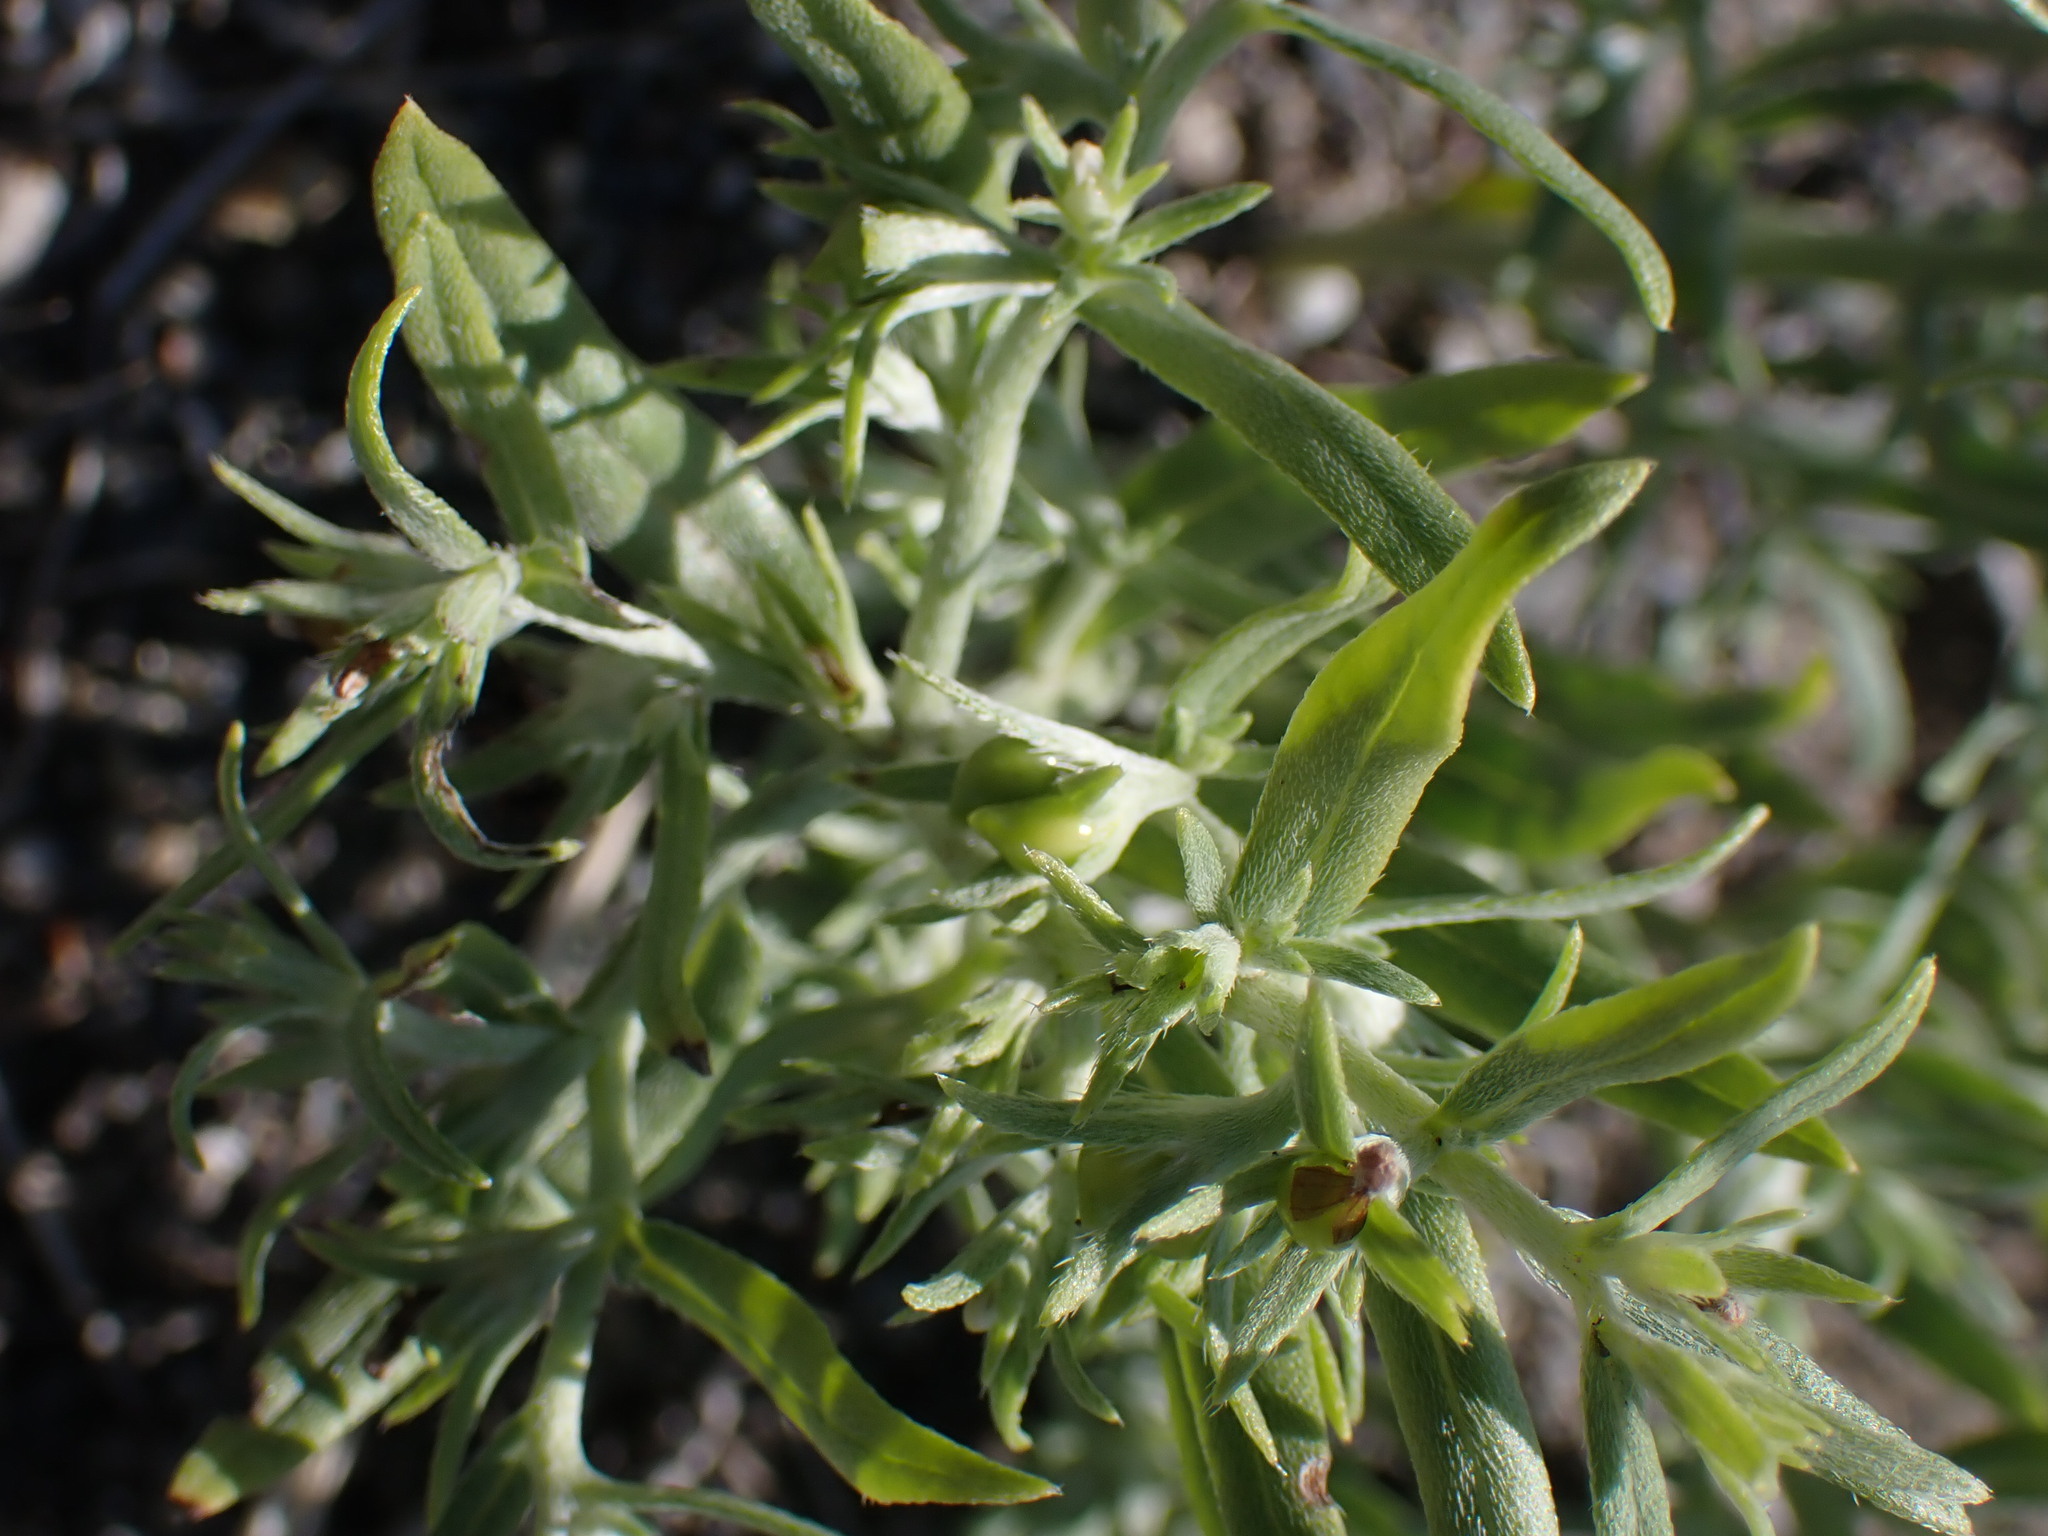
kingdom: Plantae
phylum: Tracheophyta
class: Magnoliopsida
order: Boraginales
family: Boraginaceae
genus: Lithospermum
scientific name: Lithospermum ruderale
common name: Western gromwell
